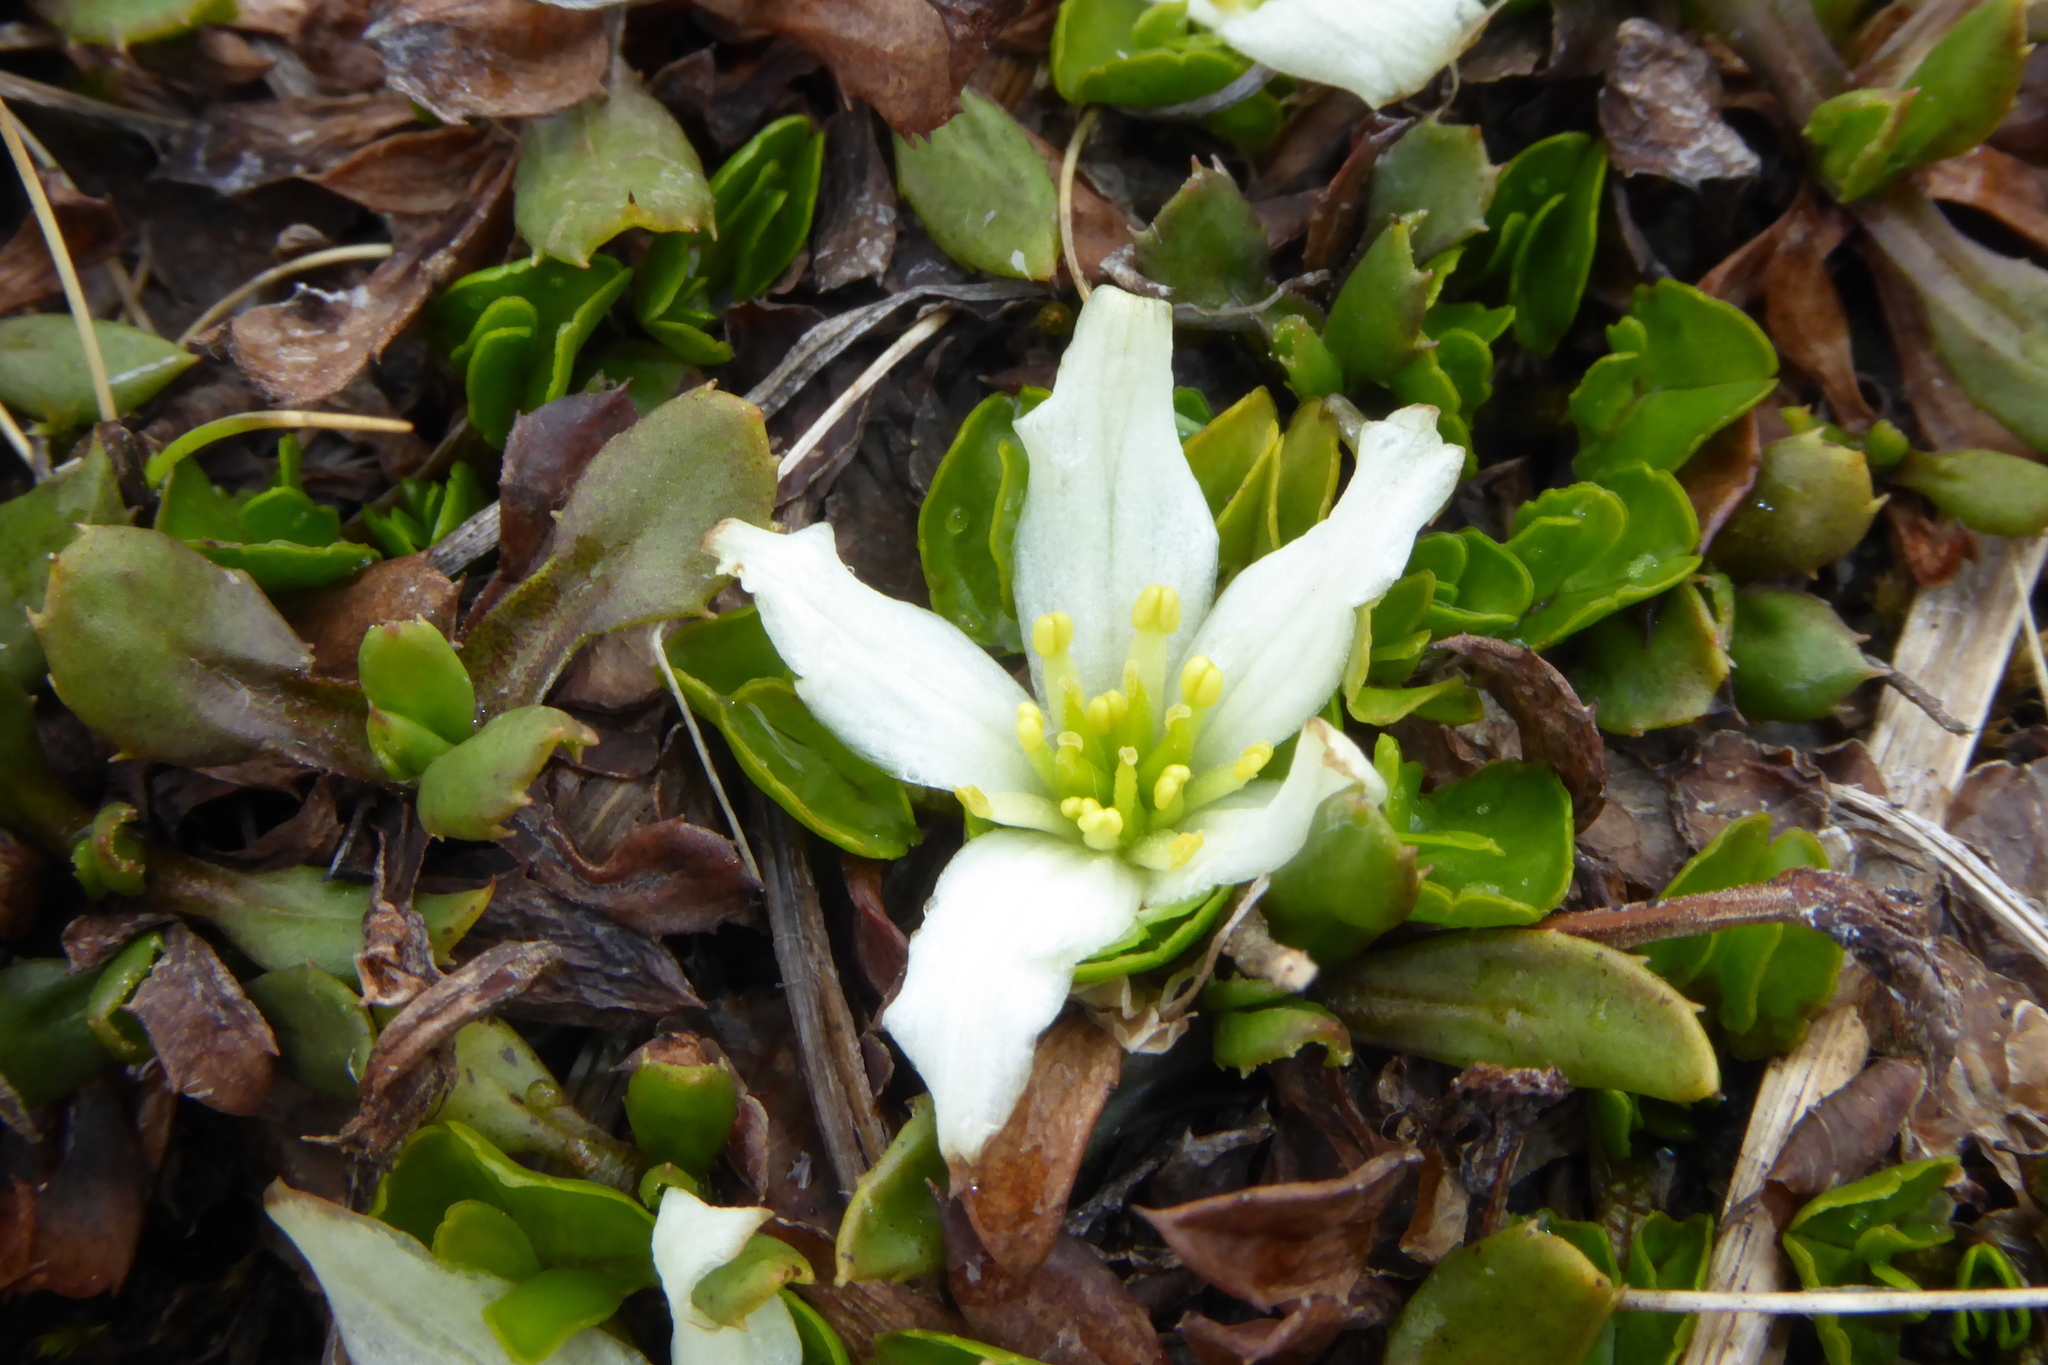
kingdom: Plantae
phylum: Tracheophyta
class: Magnoliopsida
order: Ranunculales
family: Ranunculaceae
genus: Caltha
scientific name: Caltha obtusa
